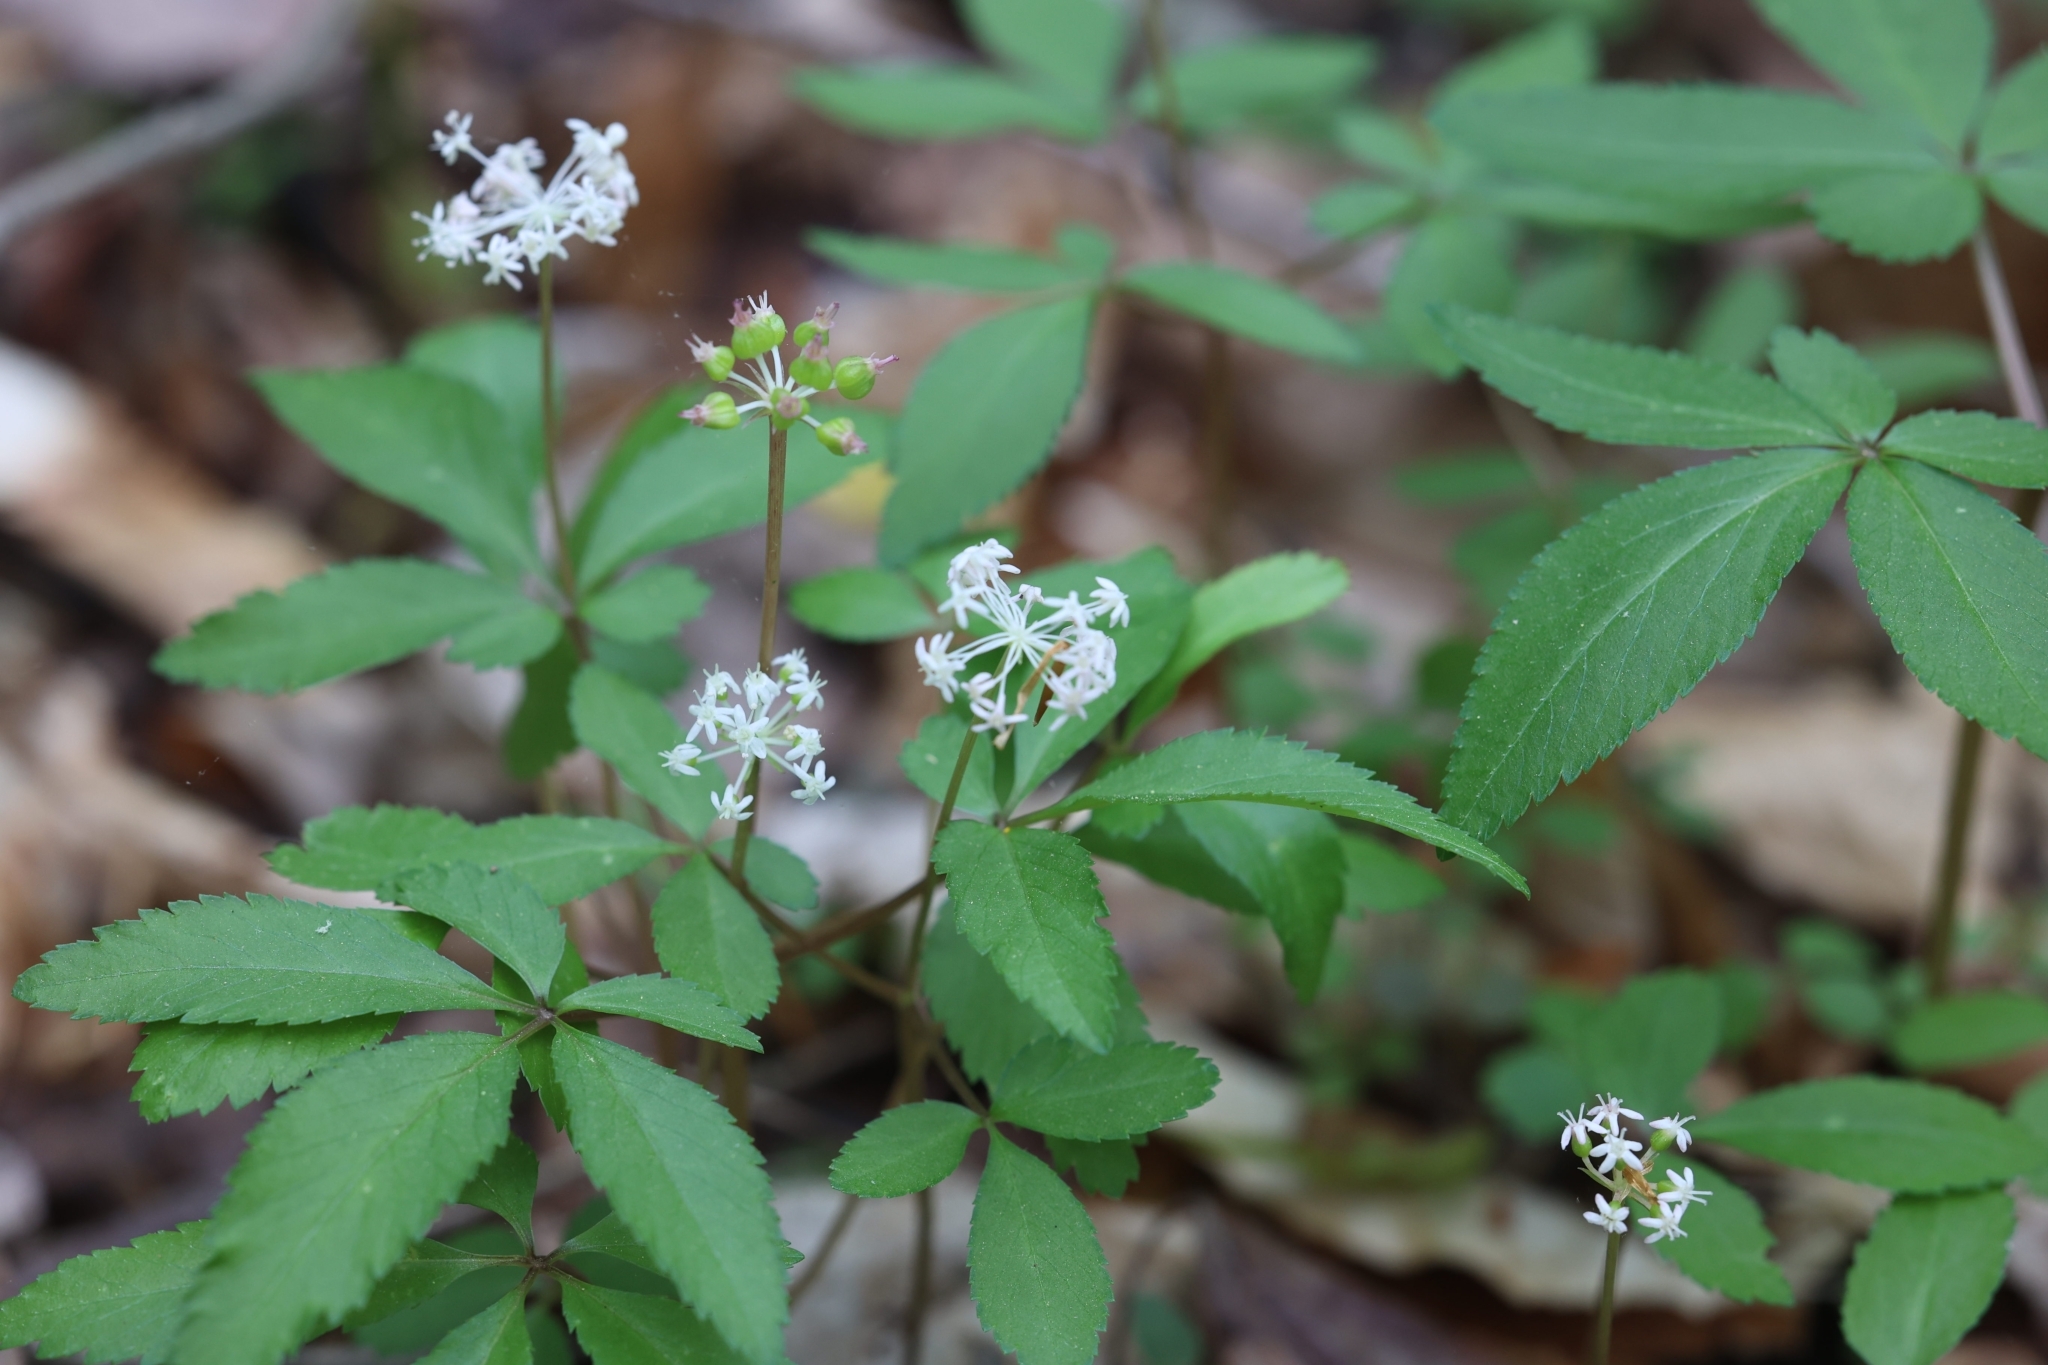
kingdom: Plantae
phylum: Tracheophyta
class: Magnoliopsida
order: Apiales
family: Araliaceae
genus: Panax
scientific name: Panax trifolius
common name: Dwarf ginseng
